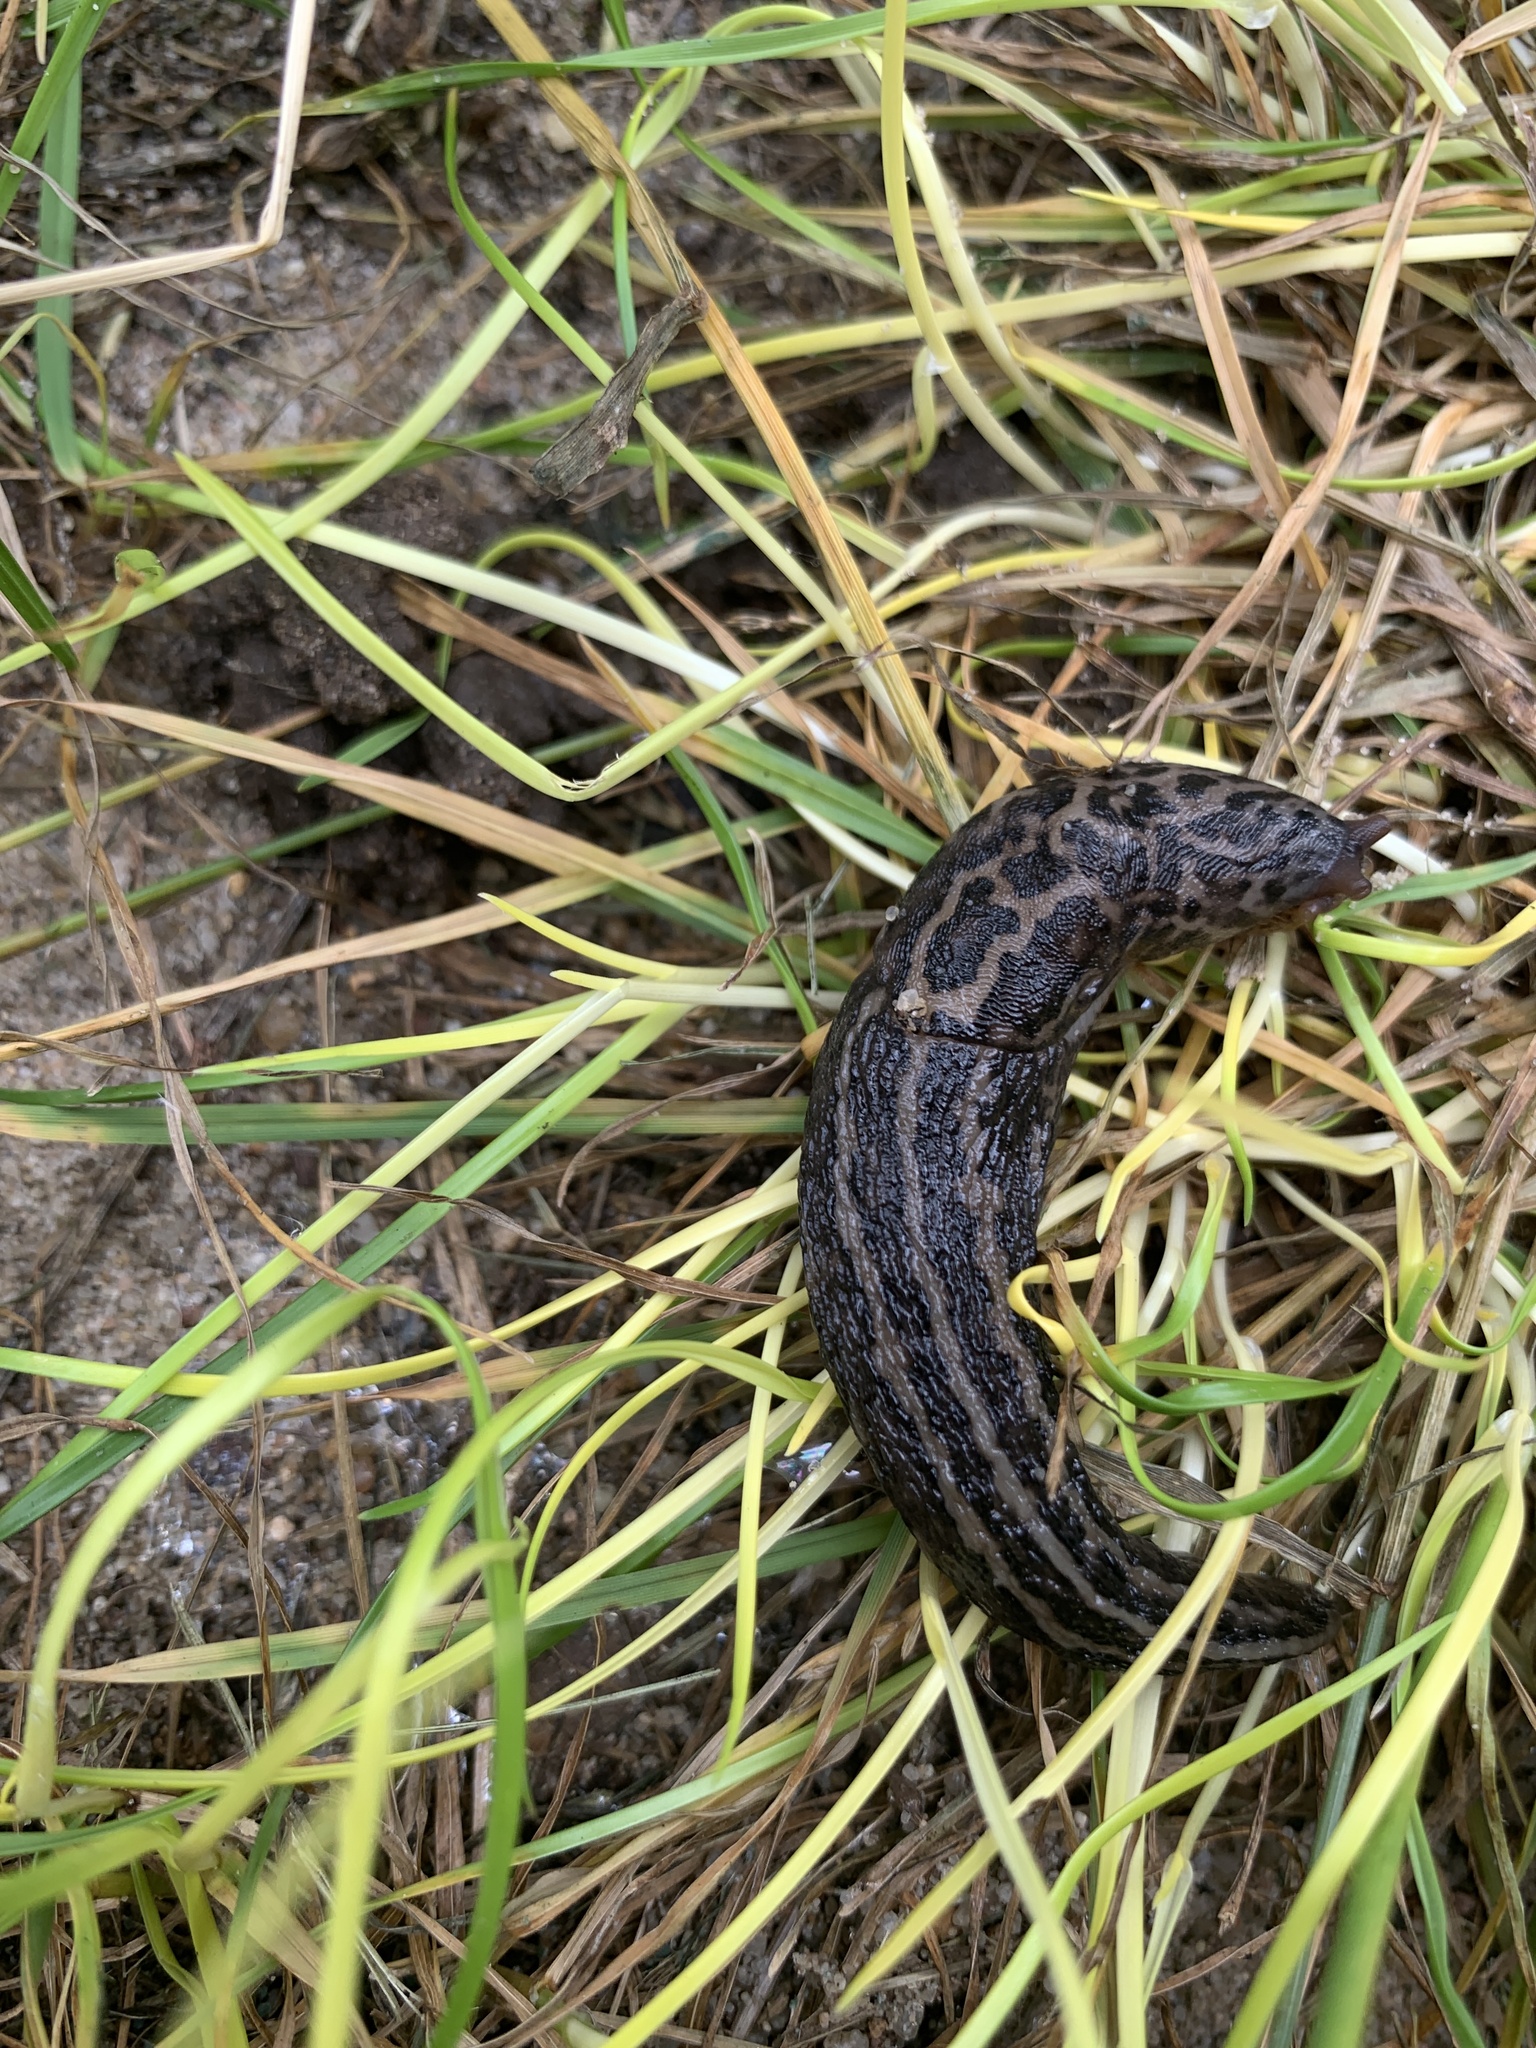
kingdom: Animalia
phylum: Mollusca
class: Gastropoda
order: Stylommatophora
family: Limacidae
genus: Limax
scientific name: Limax maximus
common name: Great grey slug
